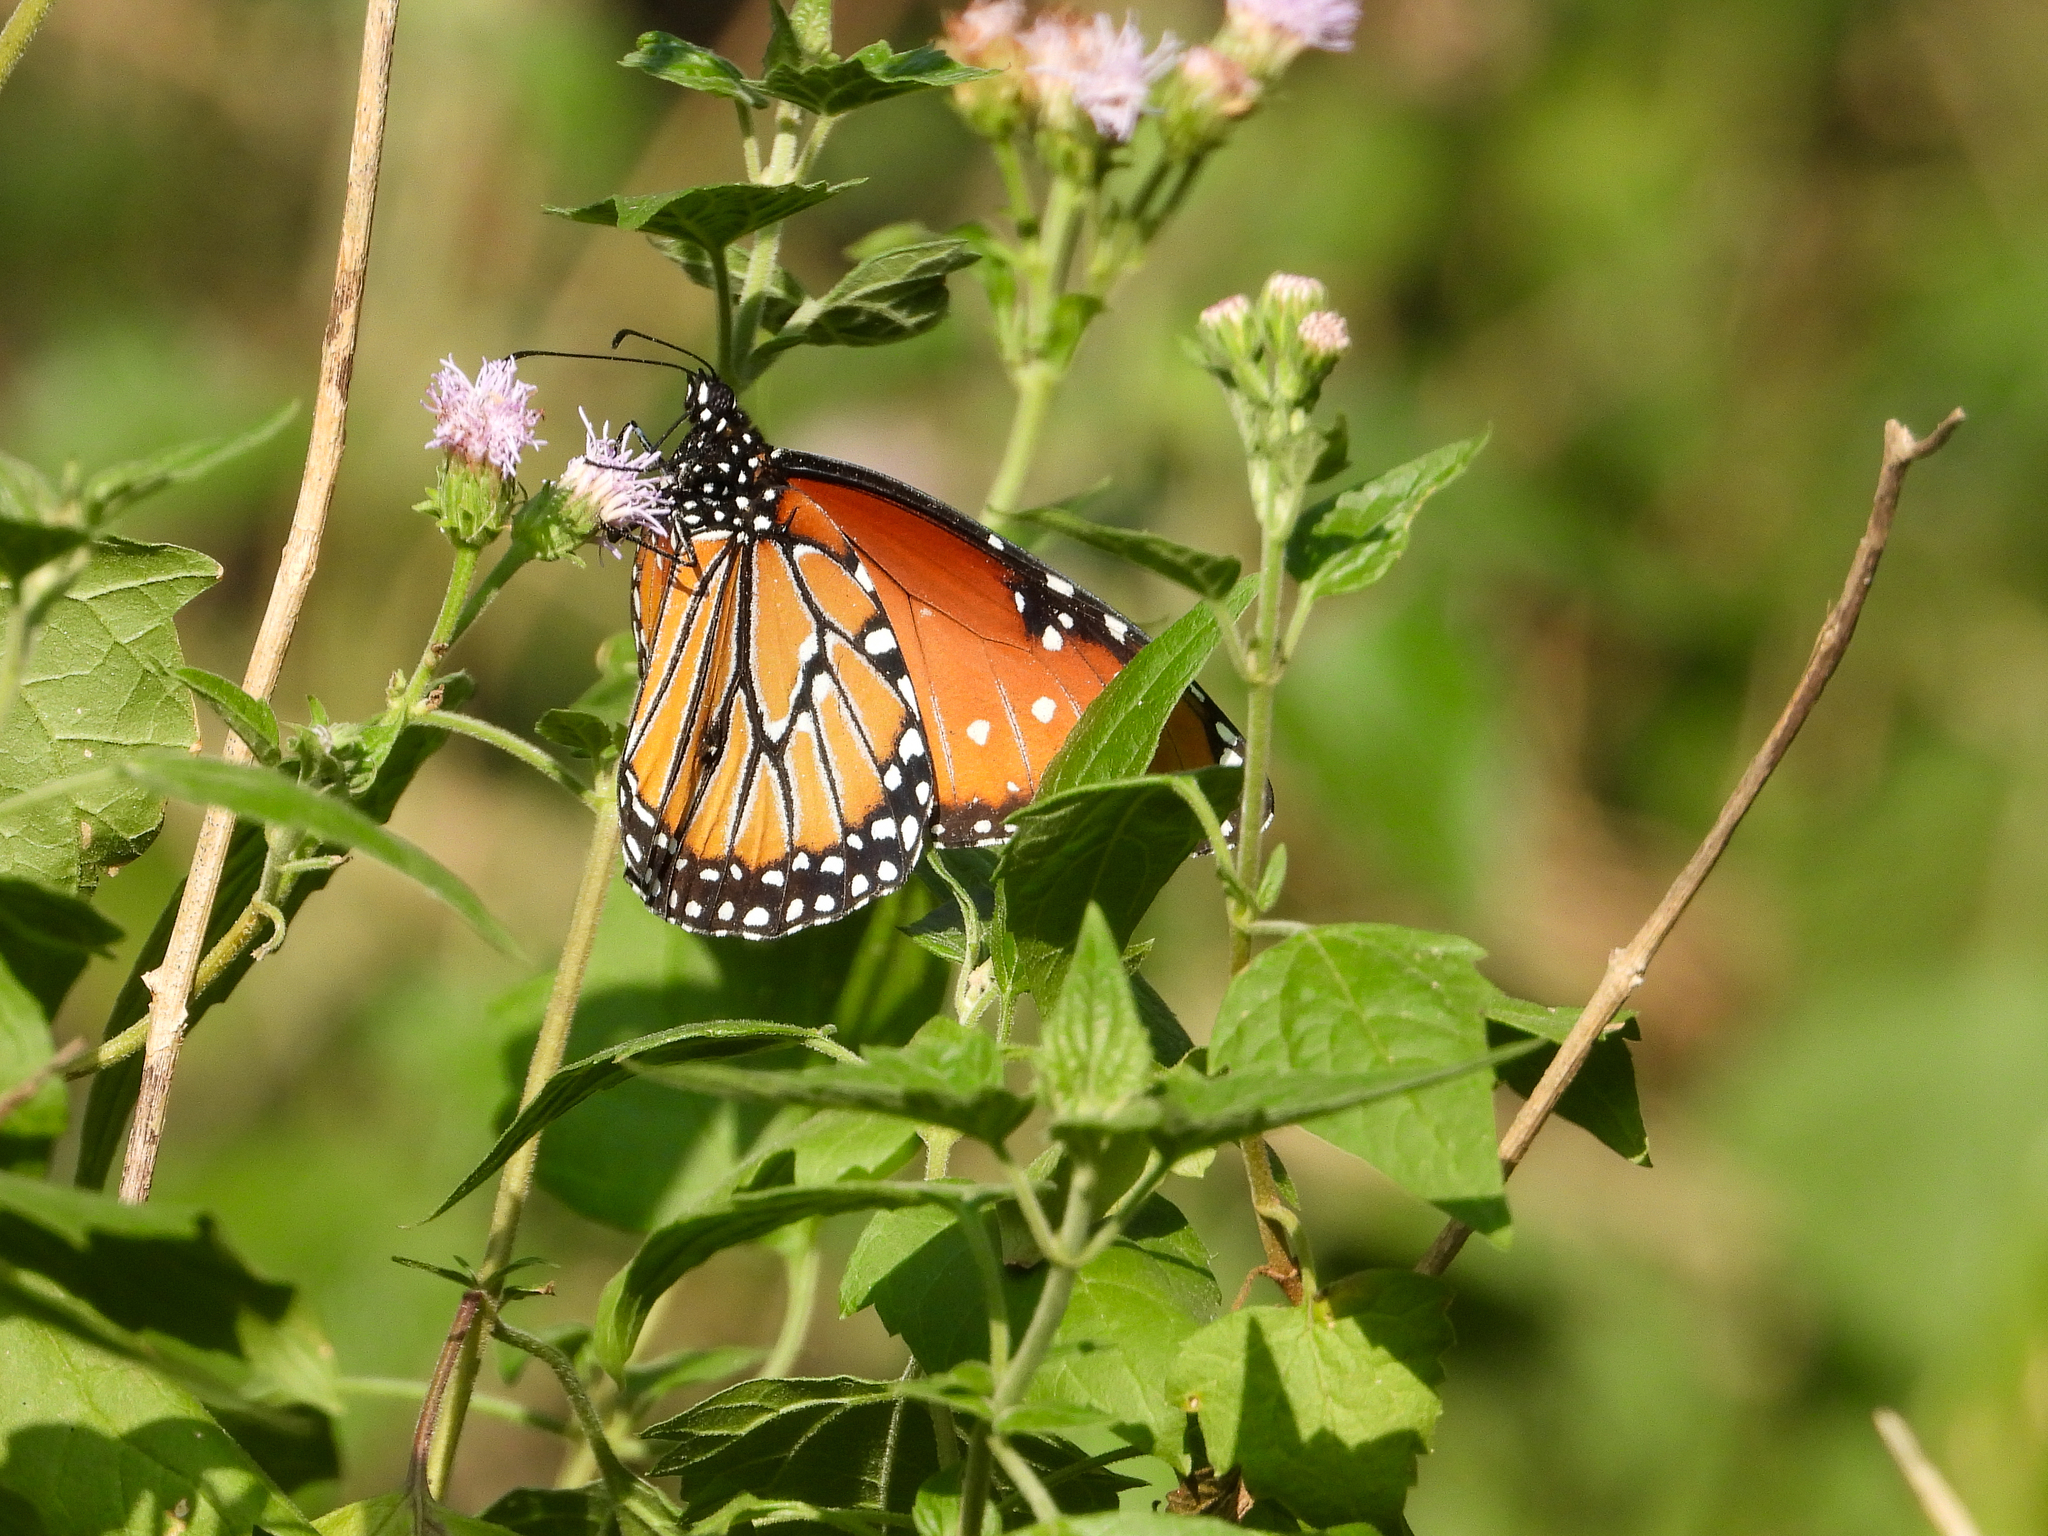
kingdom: Animalia
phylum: Arthropoda
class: Insecta
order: Lepidoptera
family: Nymphalidae
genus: Danaus
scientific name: Danaus gilippus
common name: Queen
